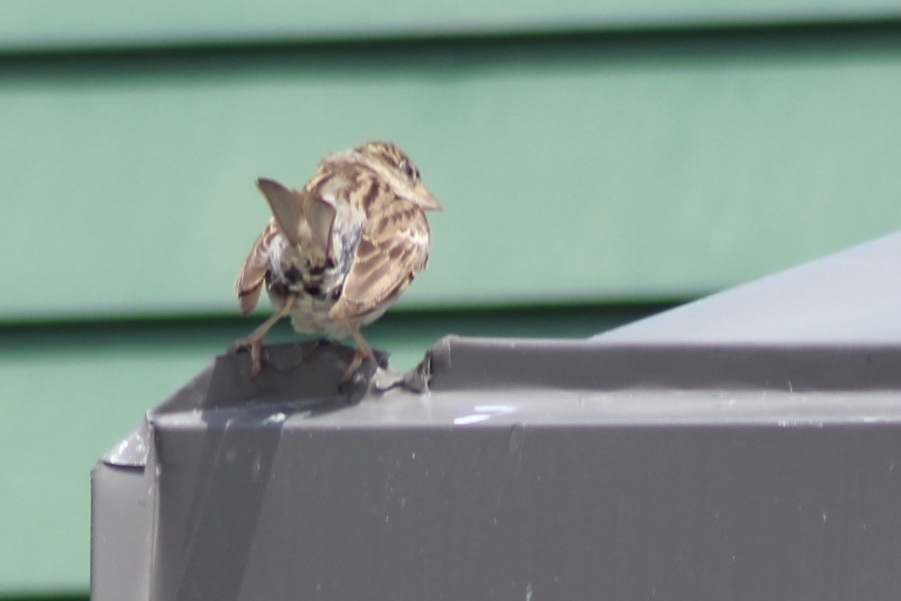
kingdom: Animalia
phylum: Chordata
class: Aves
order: Passeriformes
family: Passeridae
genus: Passer
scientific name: Passer domesticus
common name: House sparrow
